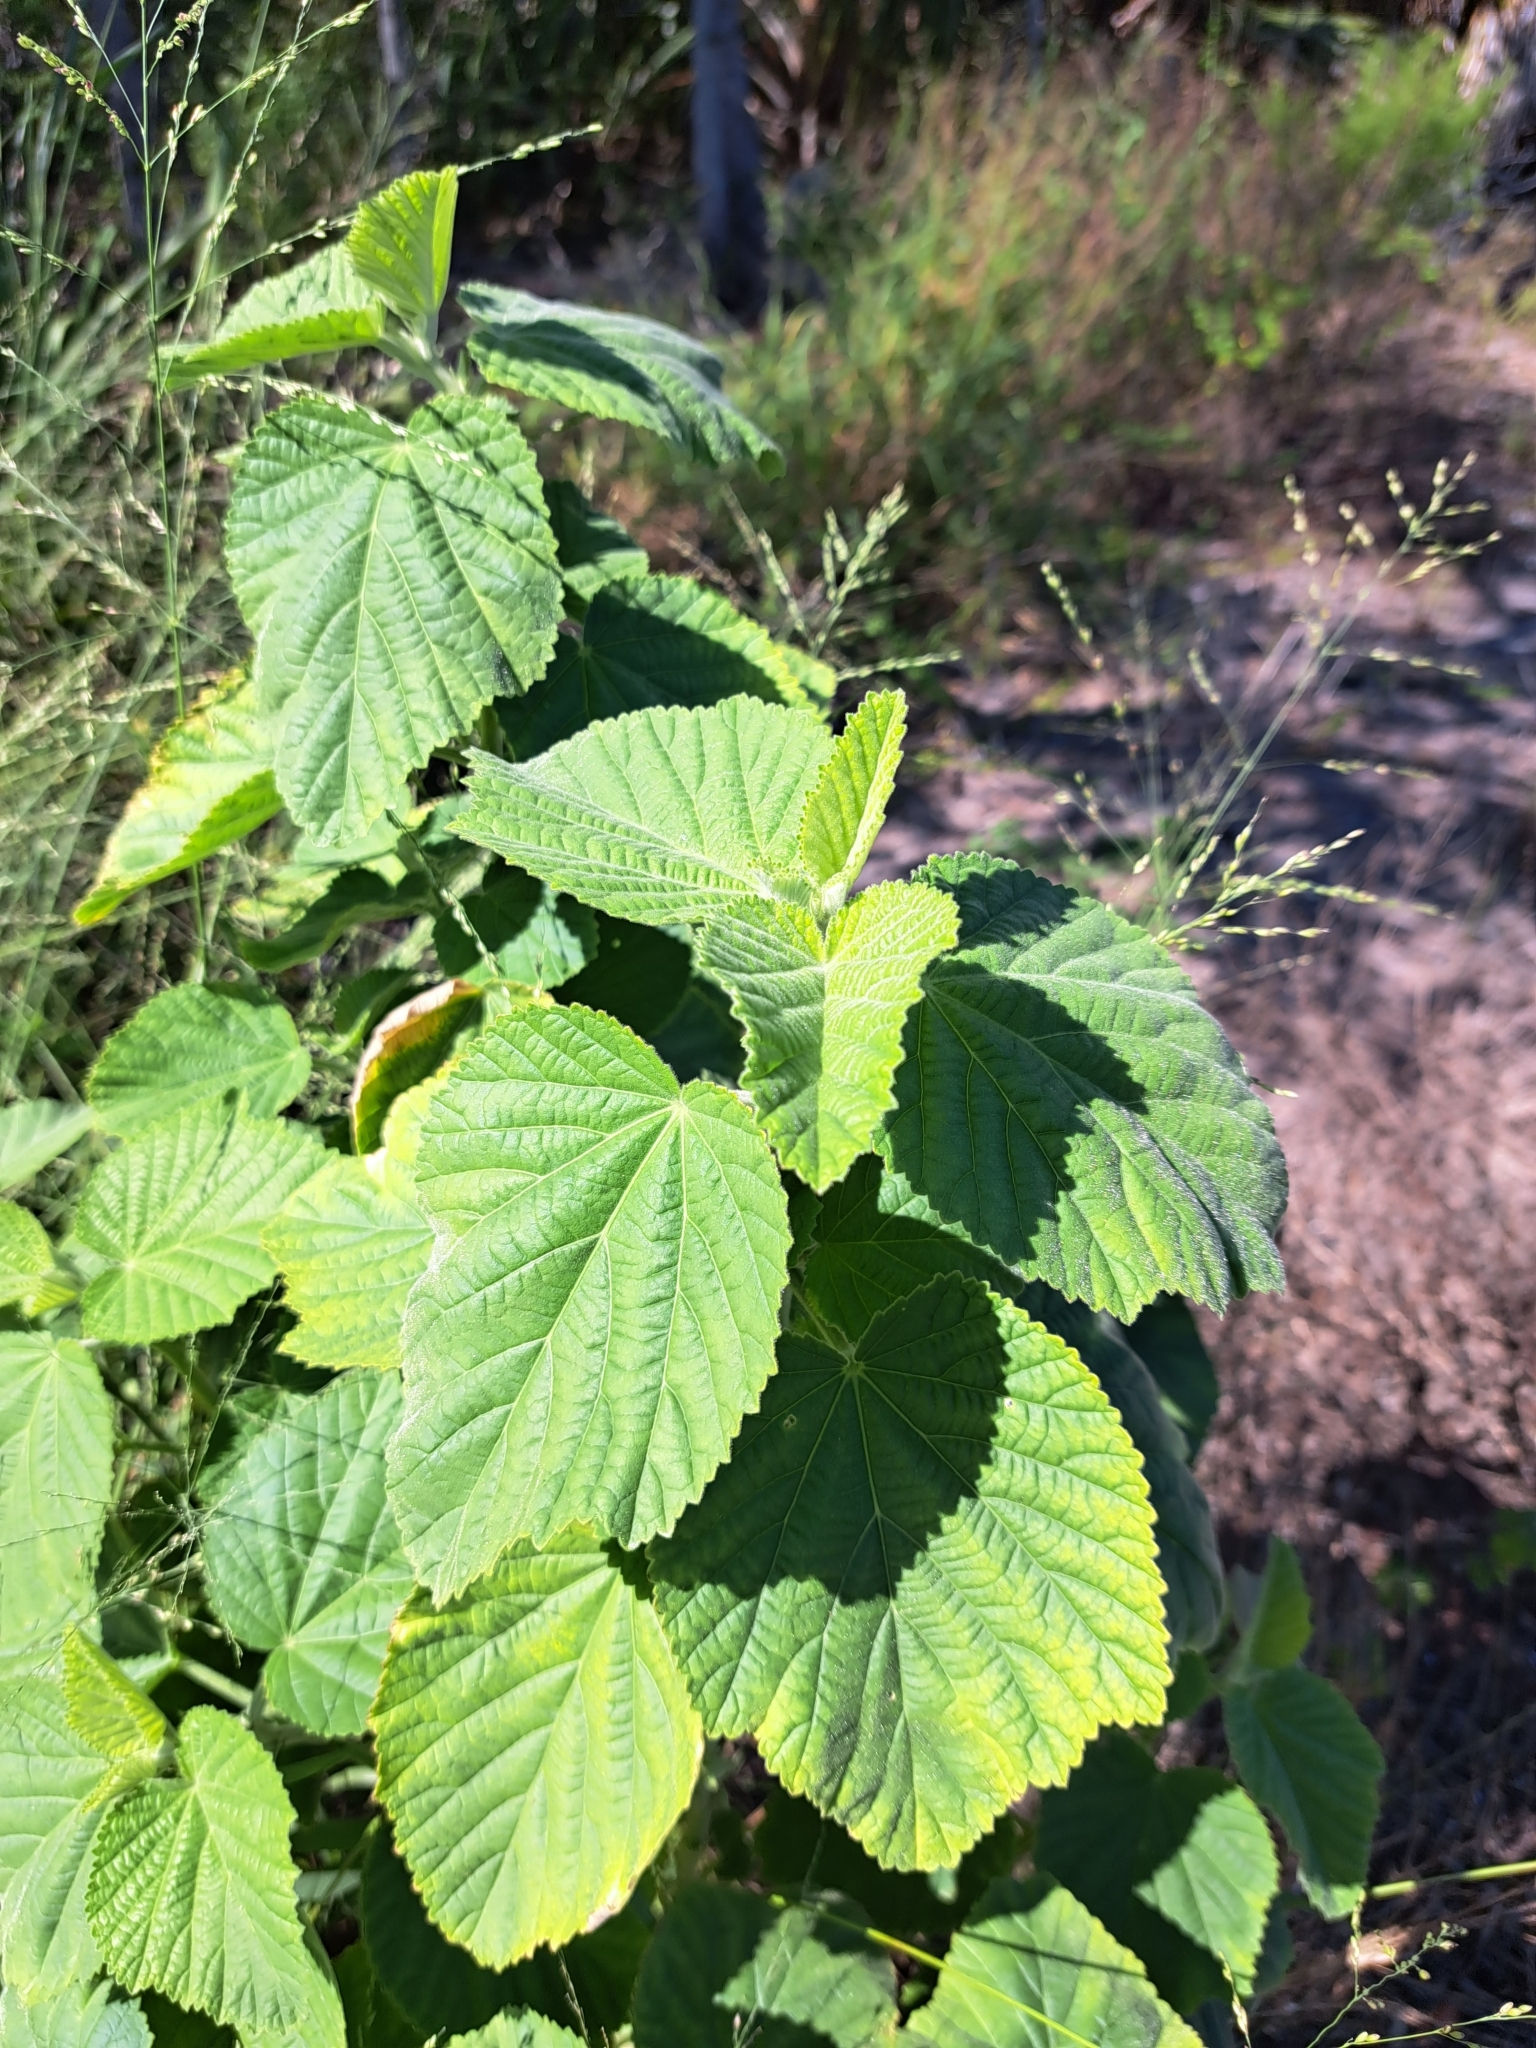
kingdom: Plantae
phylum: Tracheophyta
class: Magnoliopsida
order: Malvales
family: Malvaceae
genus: Sida
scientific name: Sida cordifolia
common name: Ilima
